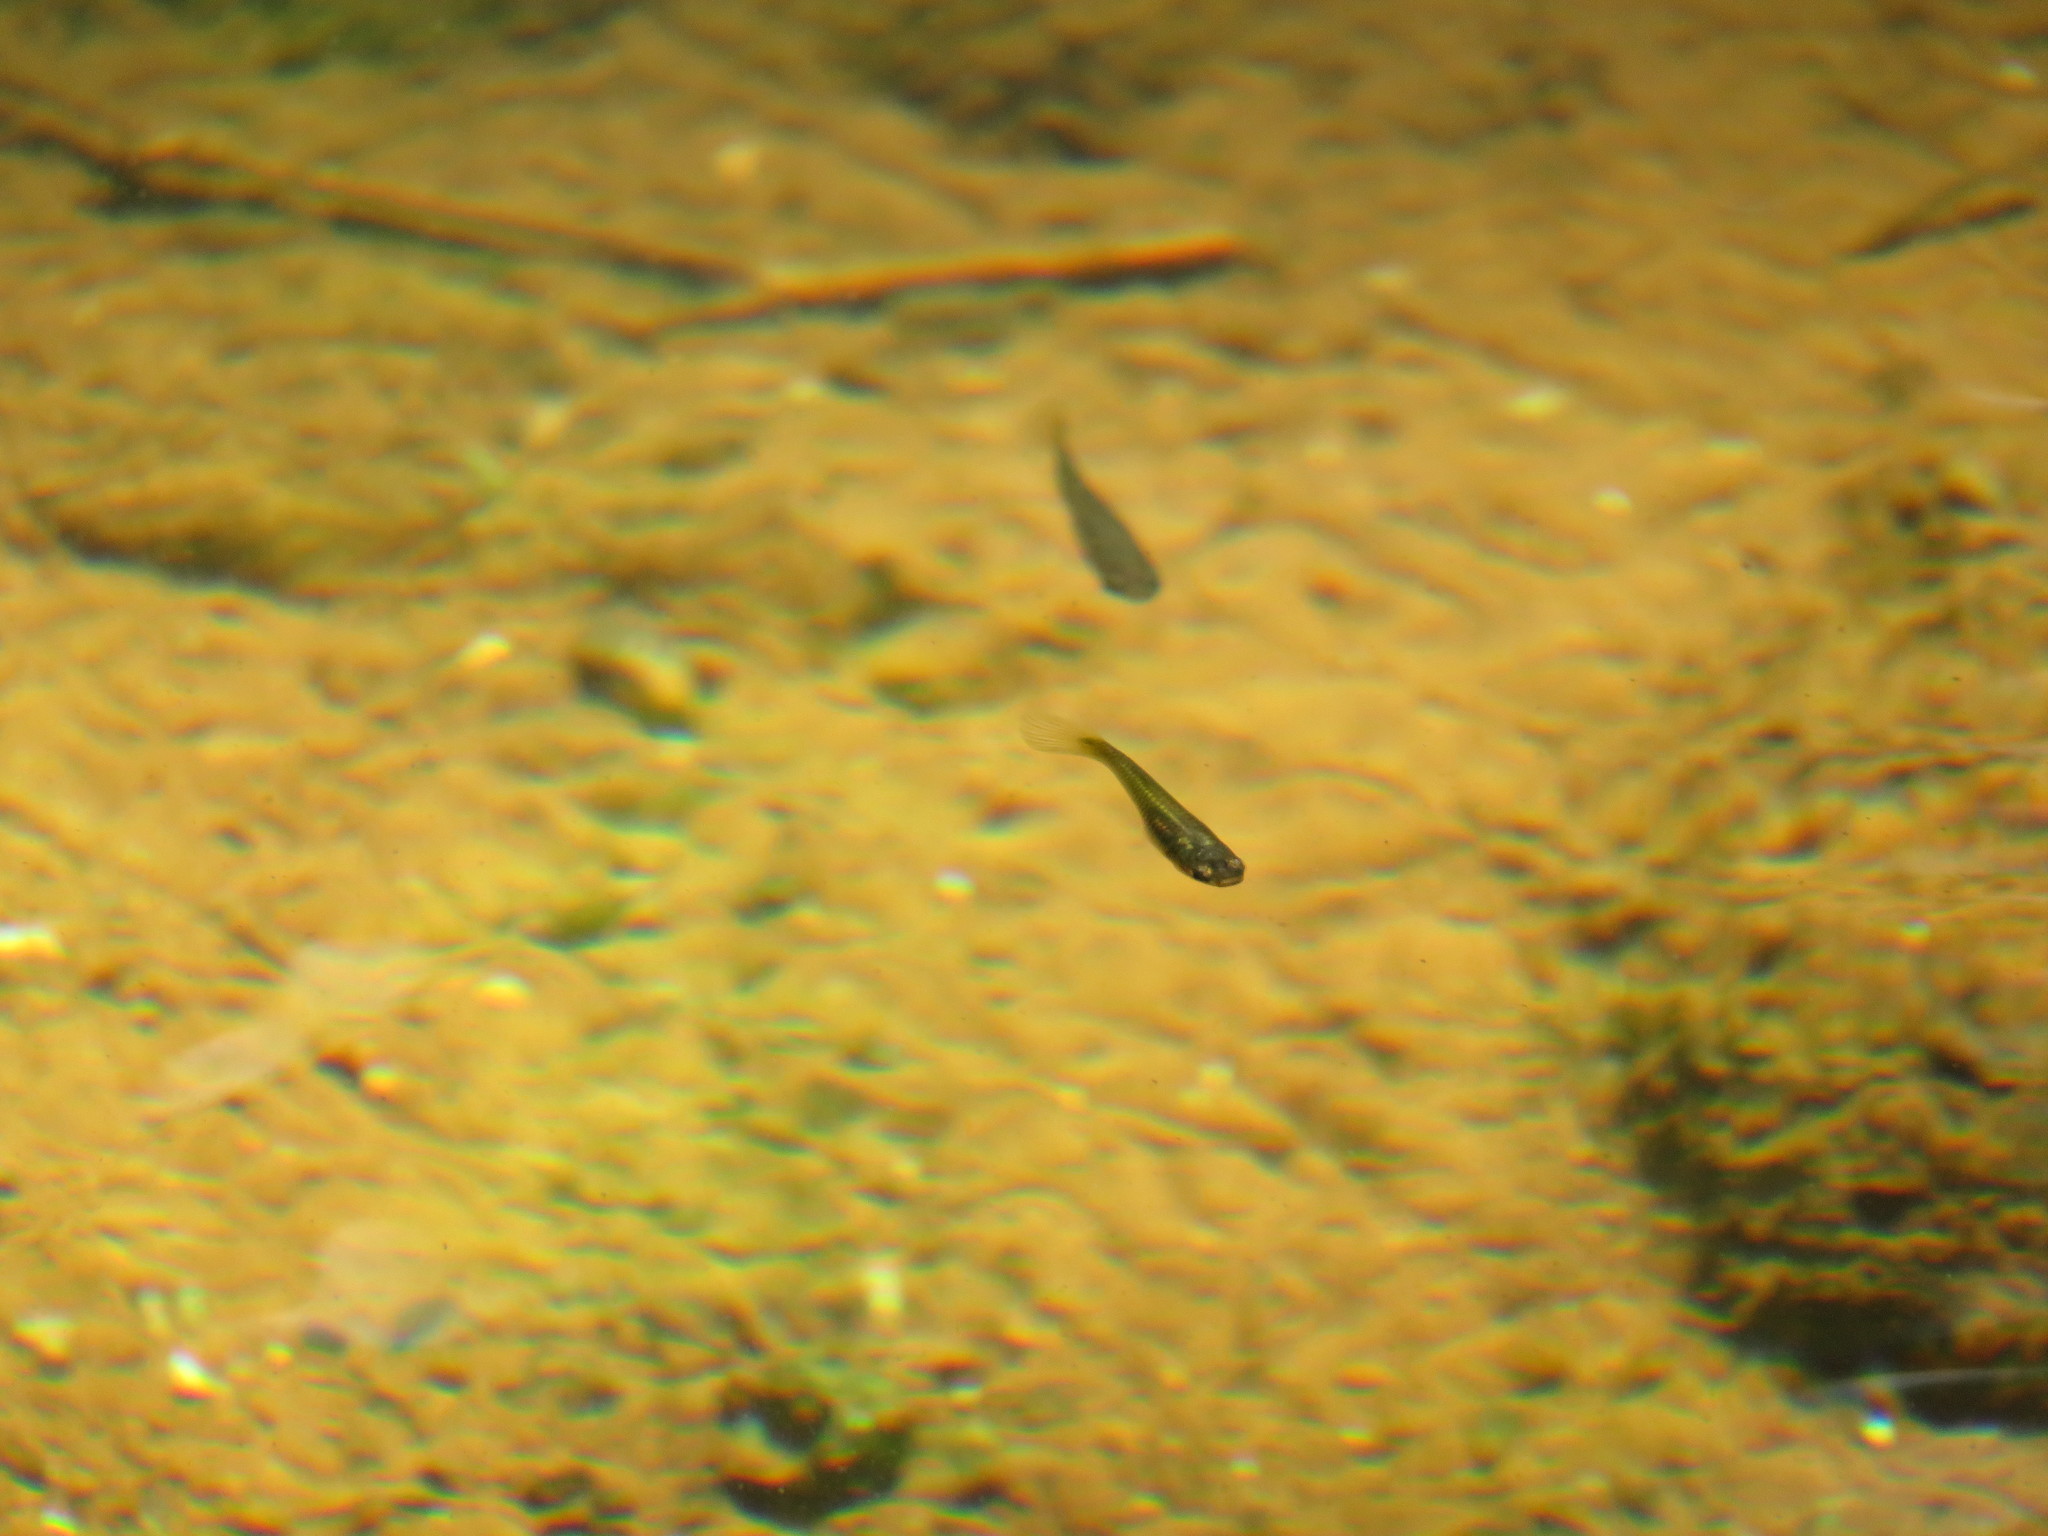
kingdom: Animalia
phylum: Chordata
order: Cyprinodontiformes
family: Poeciliidae
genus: Poecilia
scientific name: Poecilia reticulata
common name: Guppy
